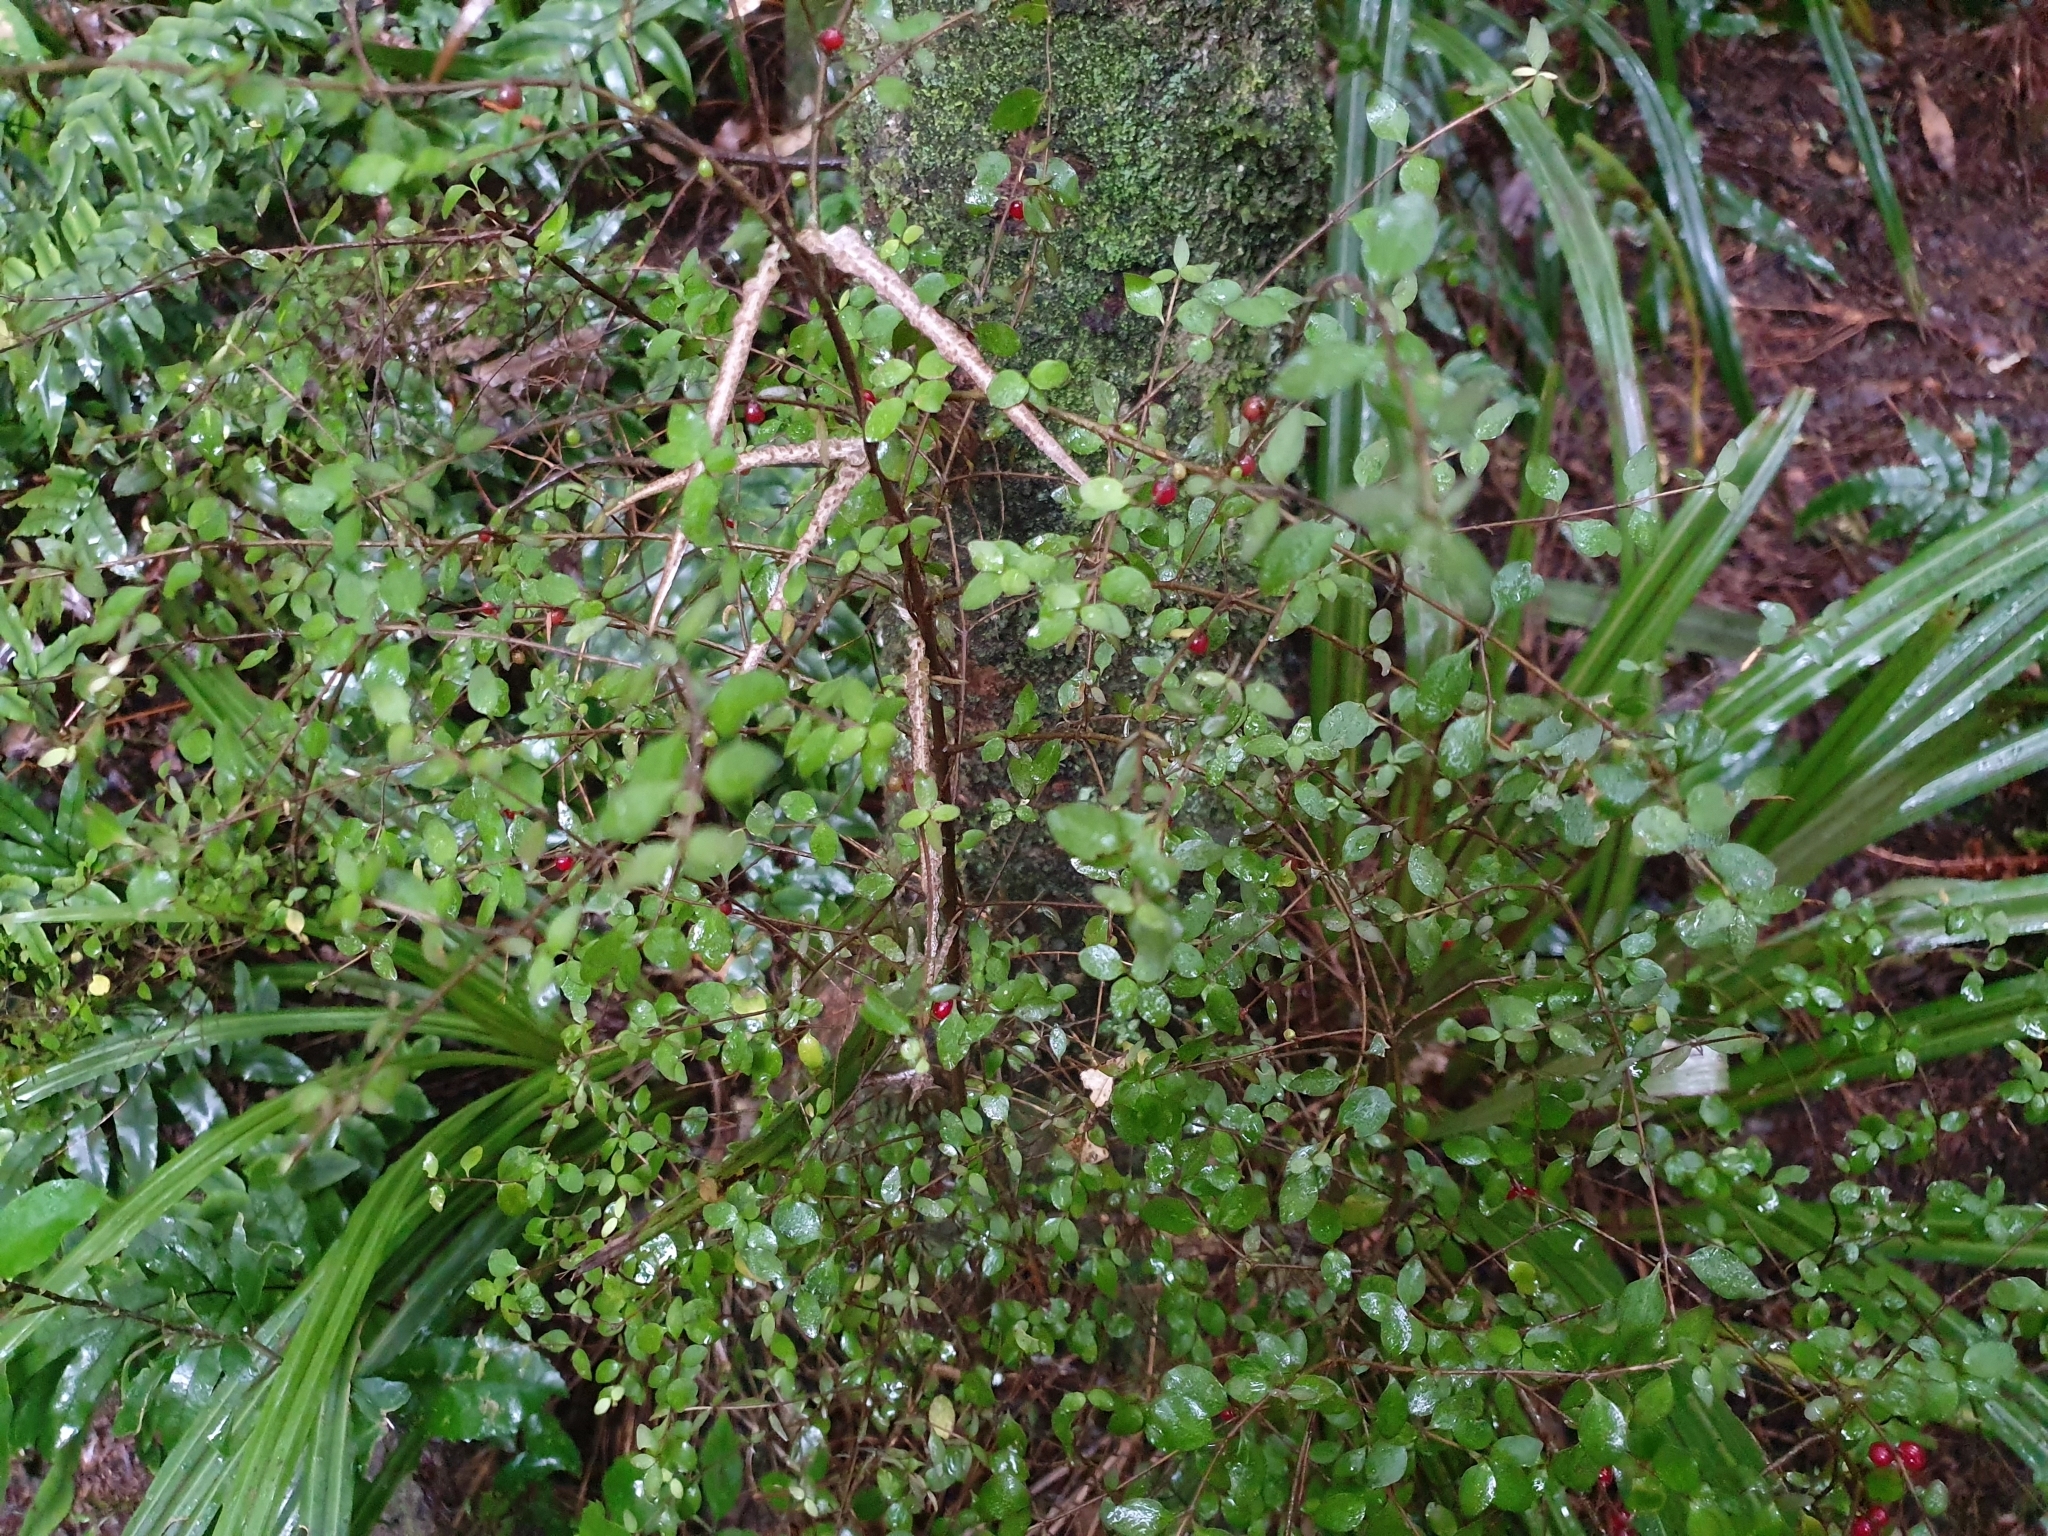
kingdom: Plantae
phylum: Tracheophyta
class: Magnoliopsida
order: Gentianales
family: Rubiaceae
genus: Coprosma
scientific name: Coprosma rhamnoides
